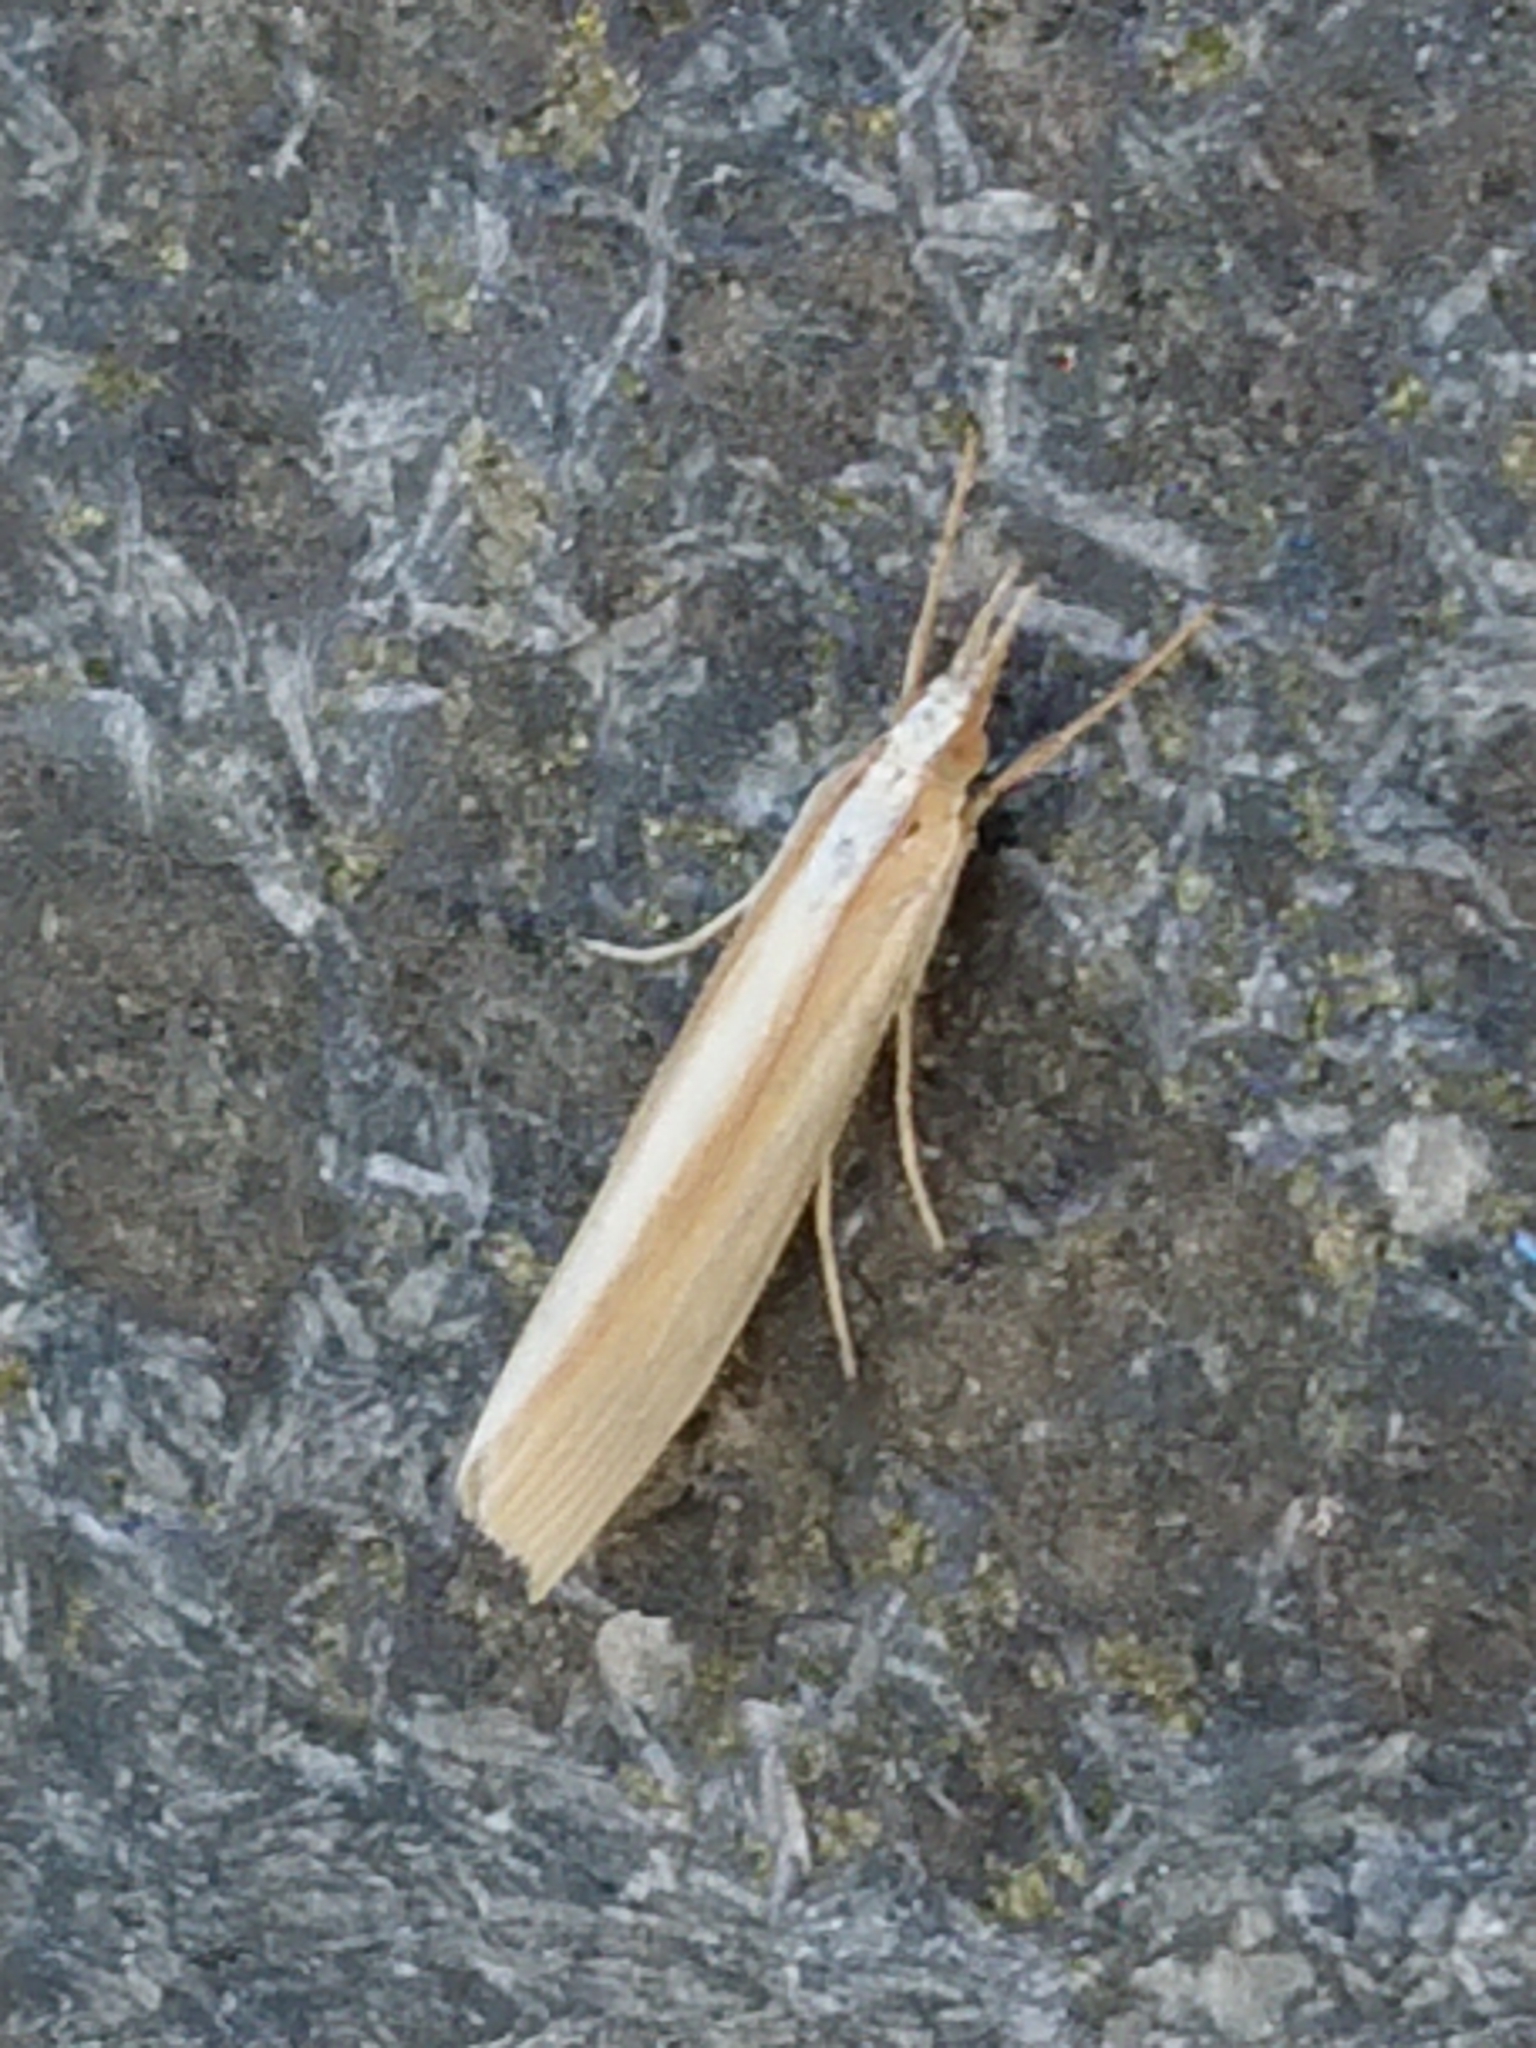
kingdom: Animalia
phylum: Arthropoda
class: Insecta
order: Lepidoptera
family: Crambidae
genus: Orocrambus
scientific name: Orocrambus angustipennis
